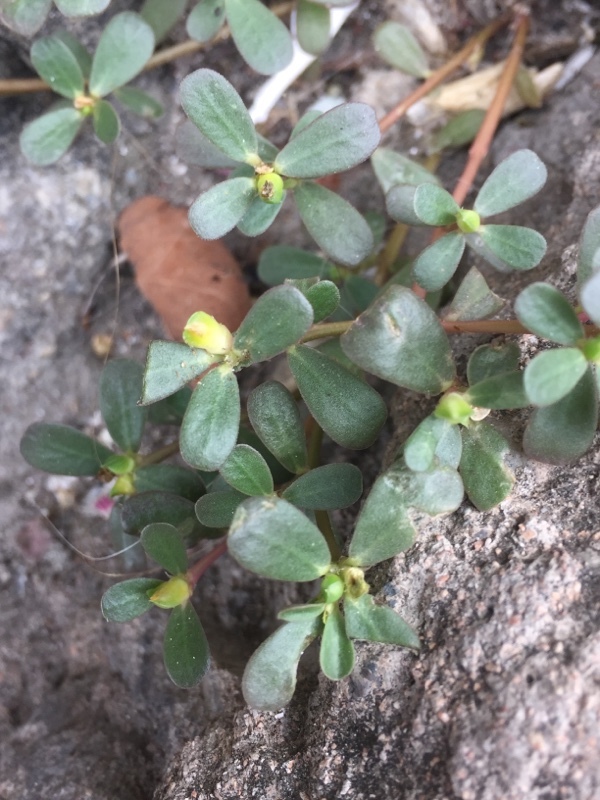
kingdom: Plantae
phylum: Tracheophyta
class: Magnoliopsida
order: Caryophyllales
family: Portulacaceae
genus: Portulaca
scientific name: Portulaca oleracea
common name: Common purslane
